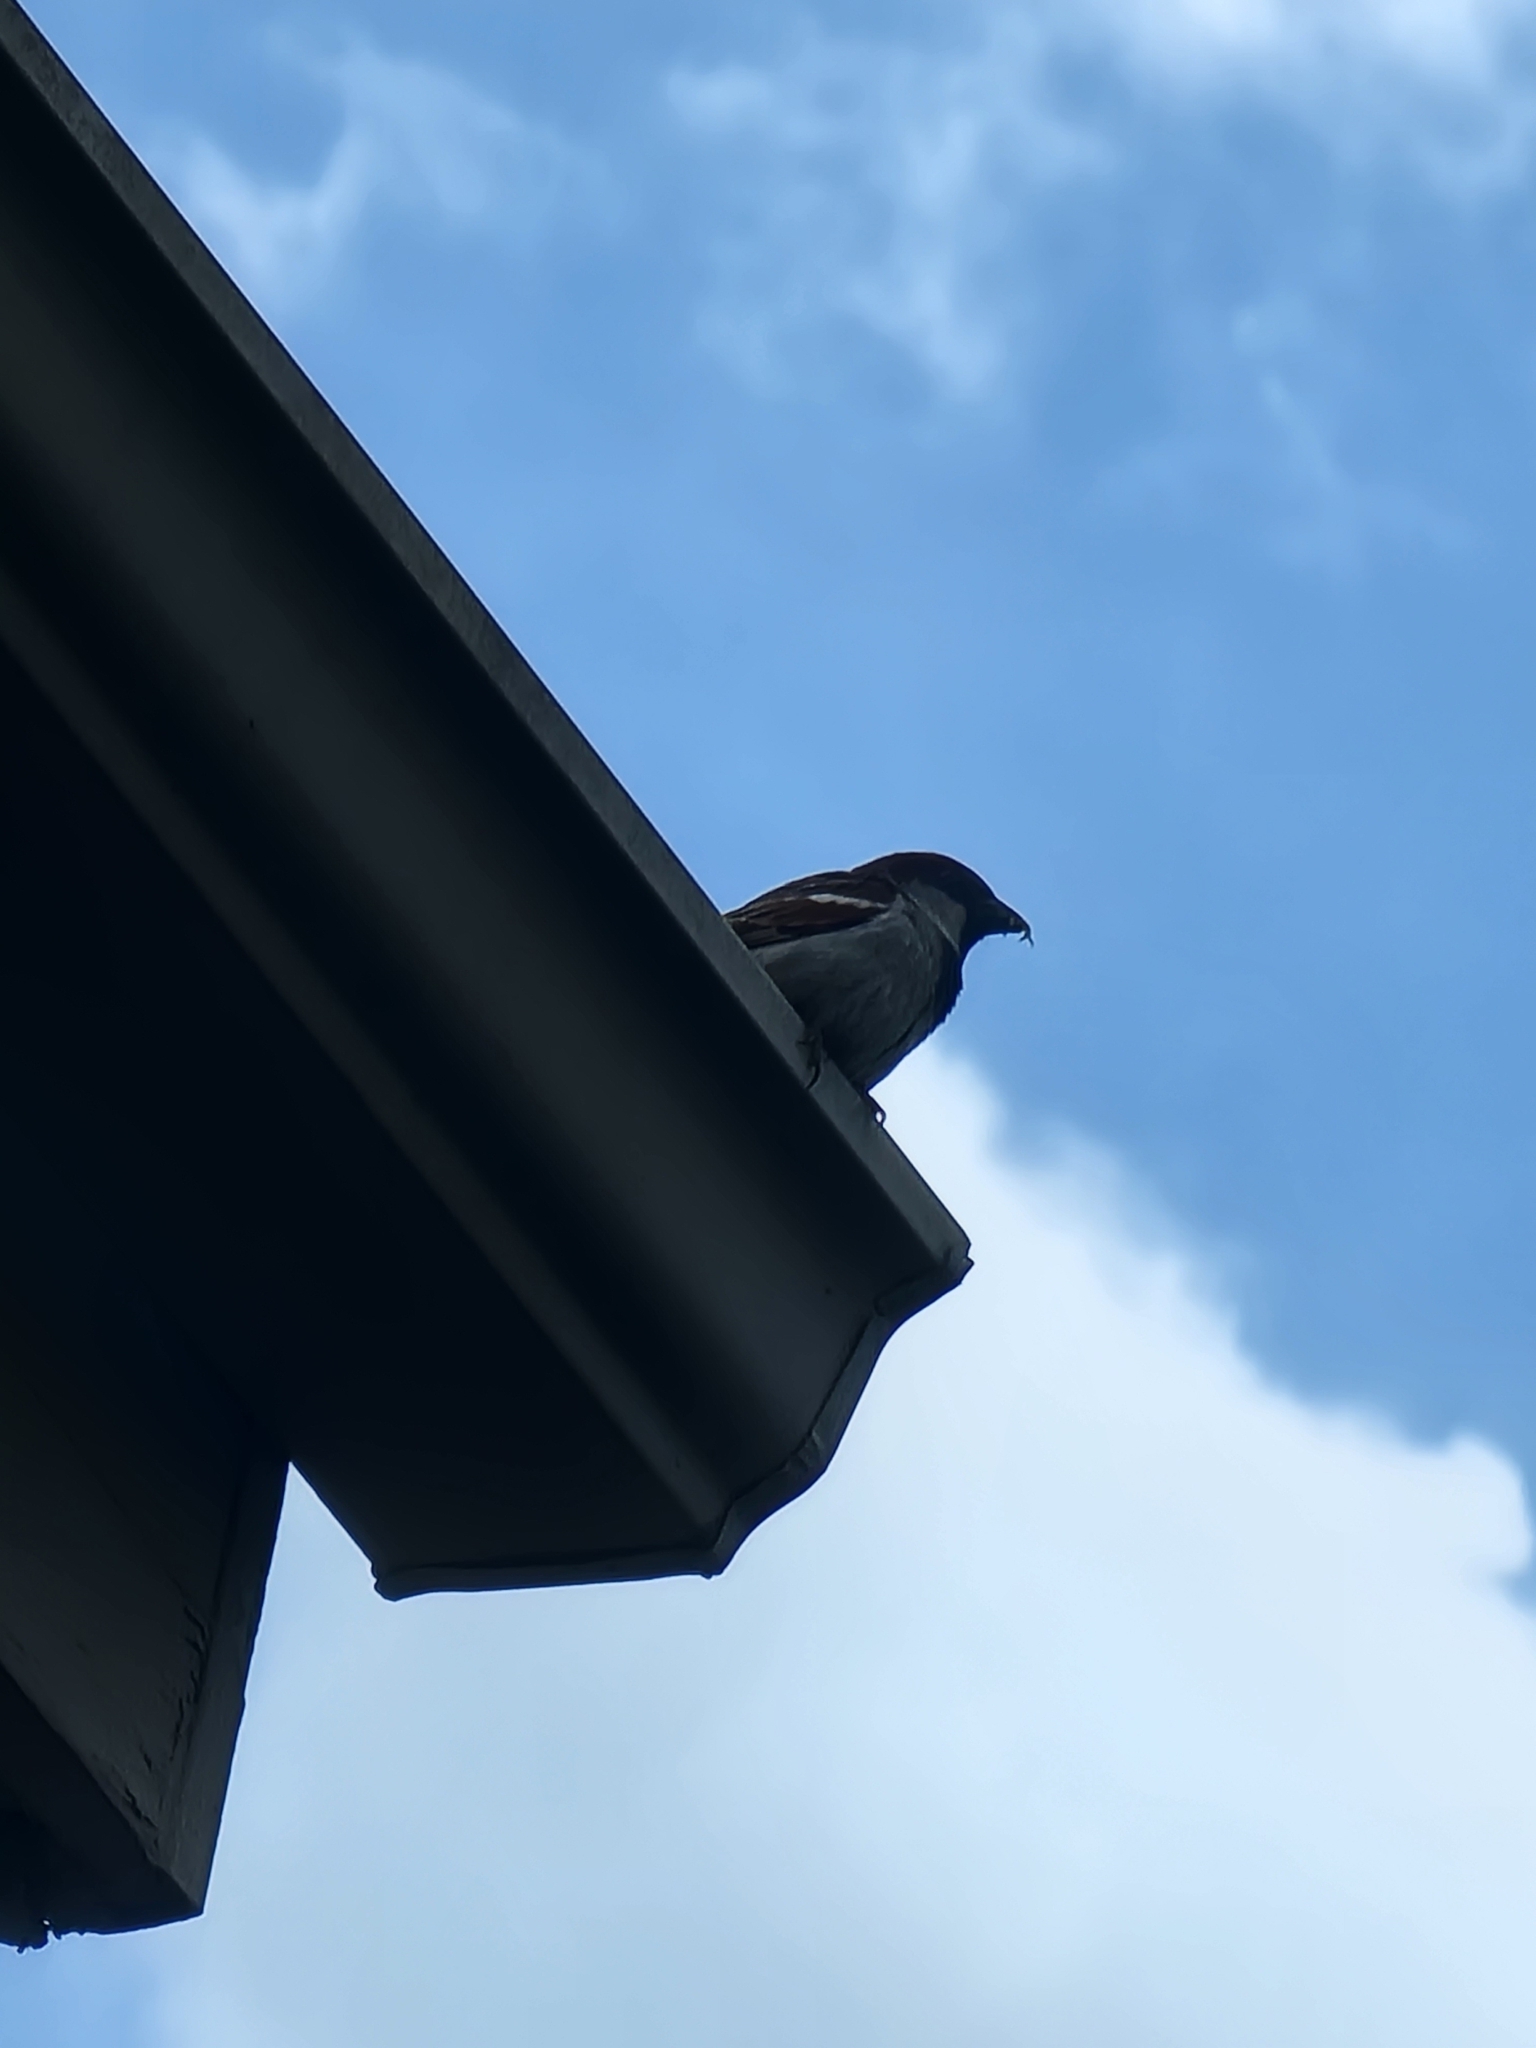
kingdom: Animalia
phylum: Chordata
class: Aves
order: Passeriformes
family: Passeridae
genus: Passer
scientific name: Passer domesticus
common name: House sparrow
